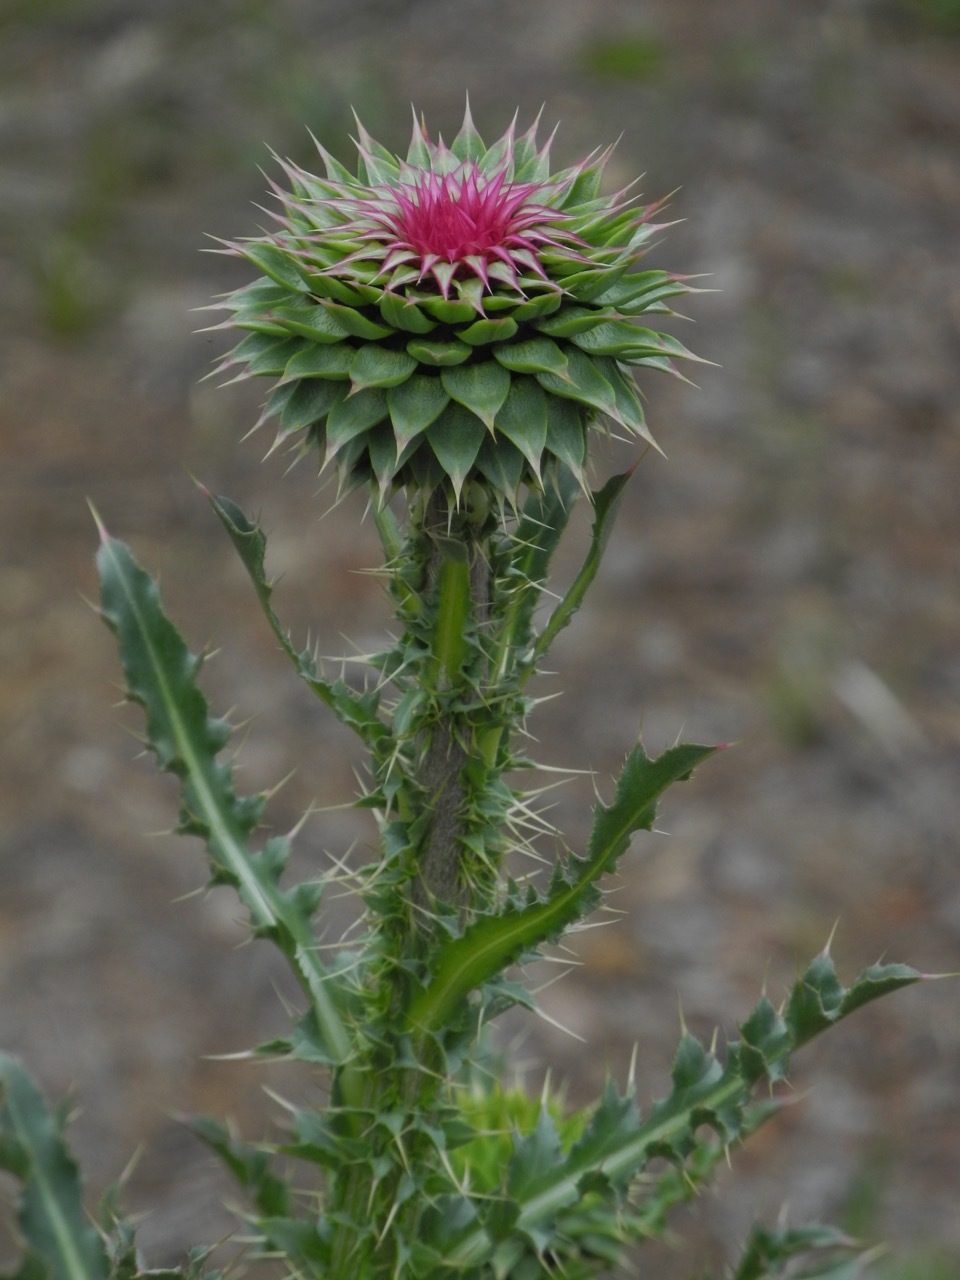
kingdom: Plantae
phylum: Tracheophyta
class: Magnoliopsida
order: Asterales
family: Asteraceae
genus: Carduus
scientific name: Carduus nutans
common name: Musk thistle
